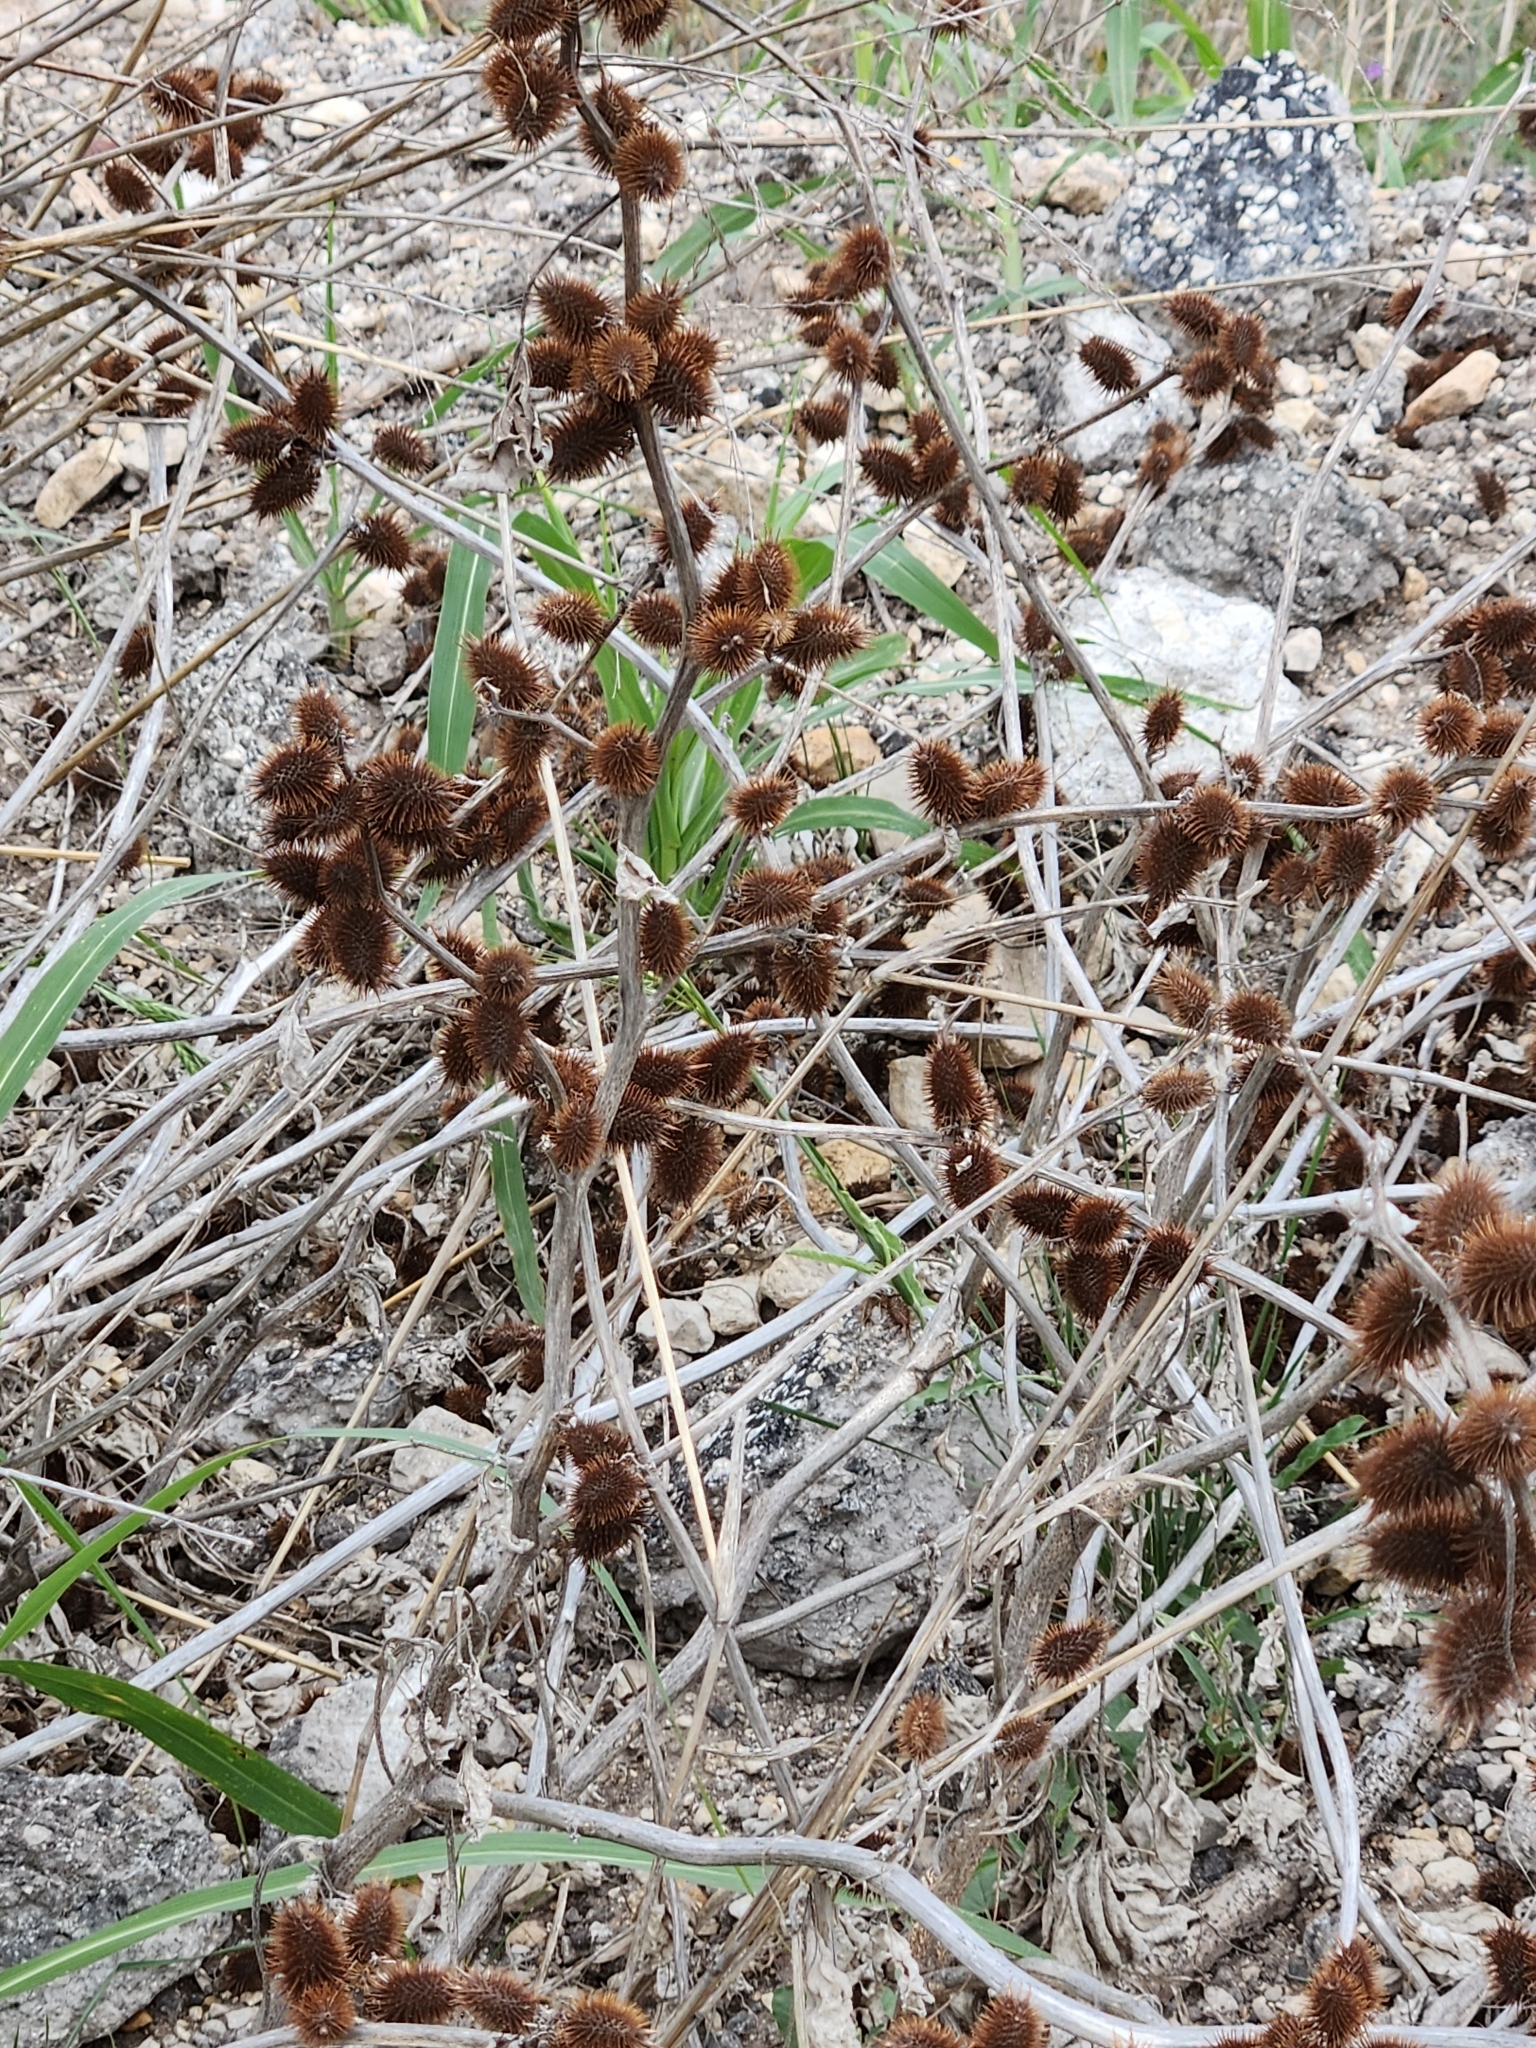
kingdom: Plantae
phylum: Tracheophyta
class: Magnoliopsida
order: Asterales
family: Asteraceae
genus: Xanthium
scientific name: Xanthium strumarium
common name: Rough cocklebur
